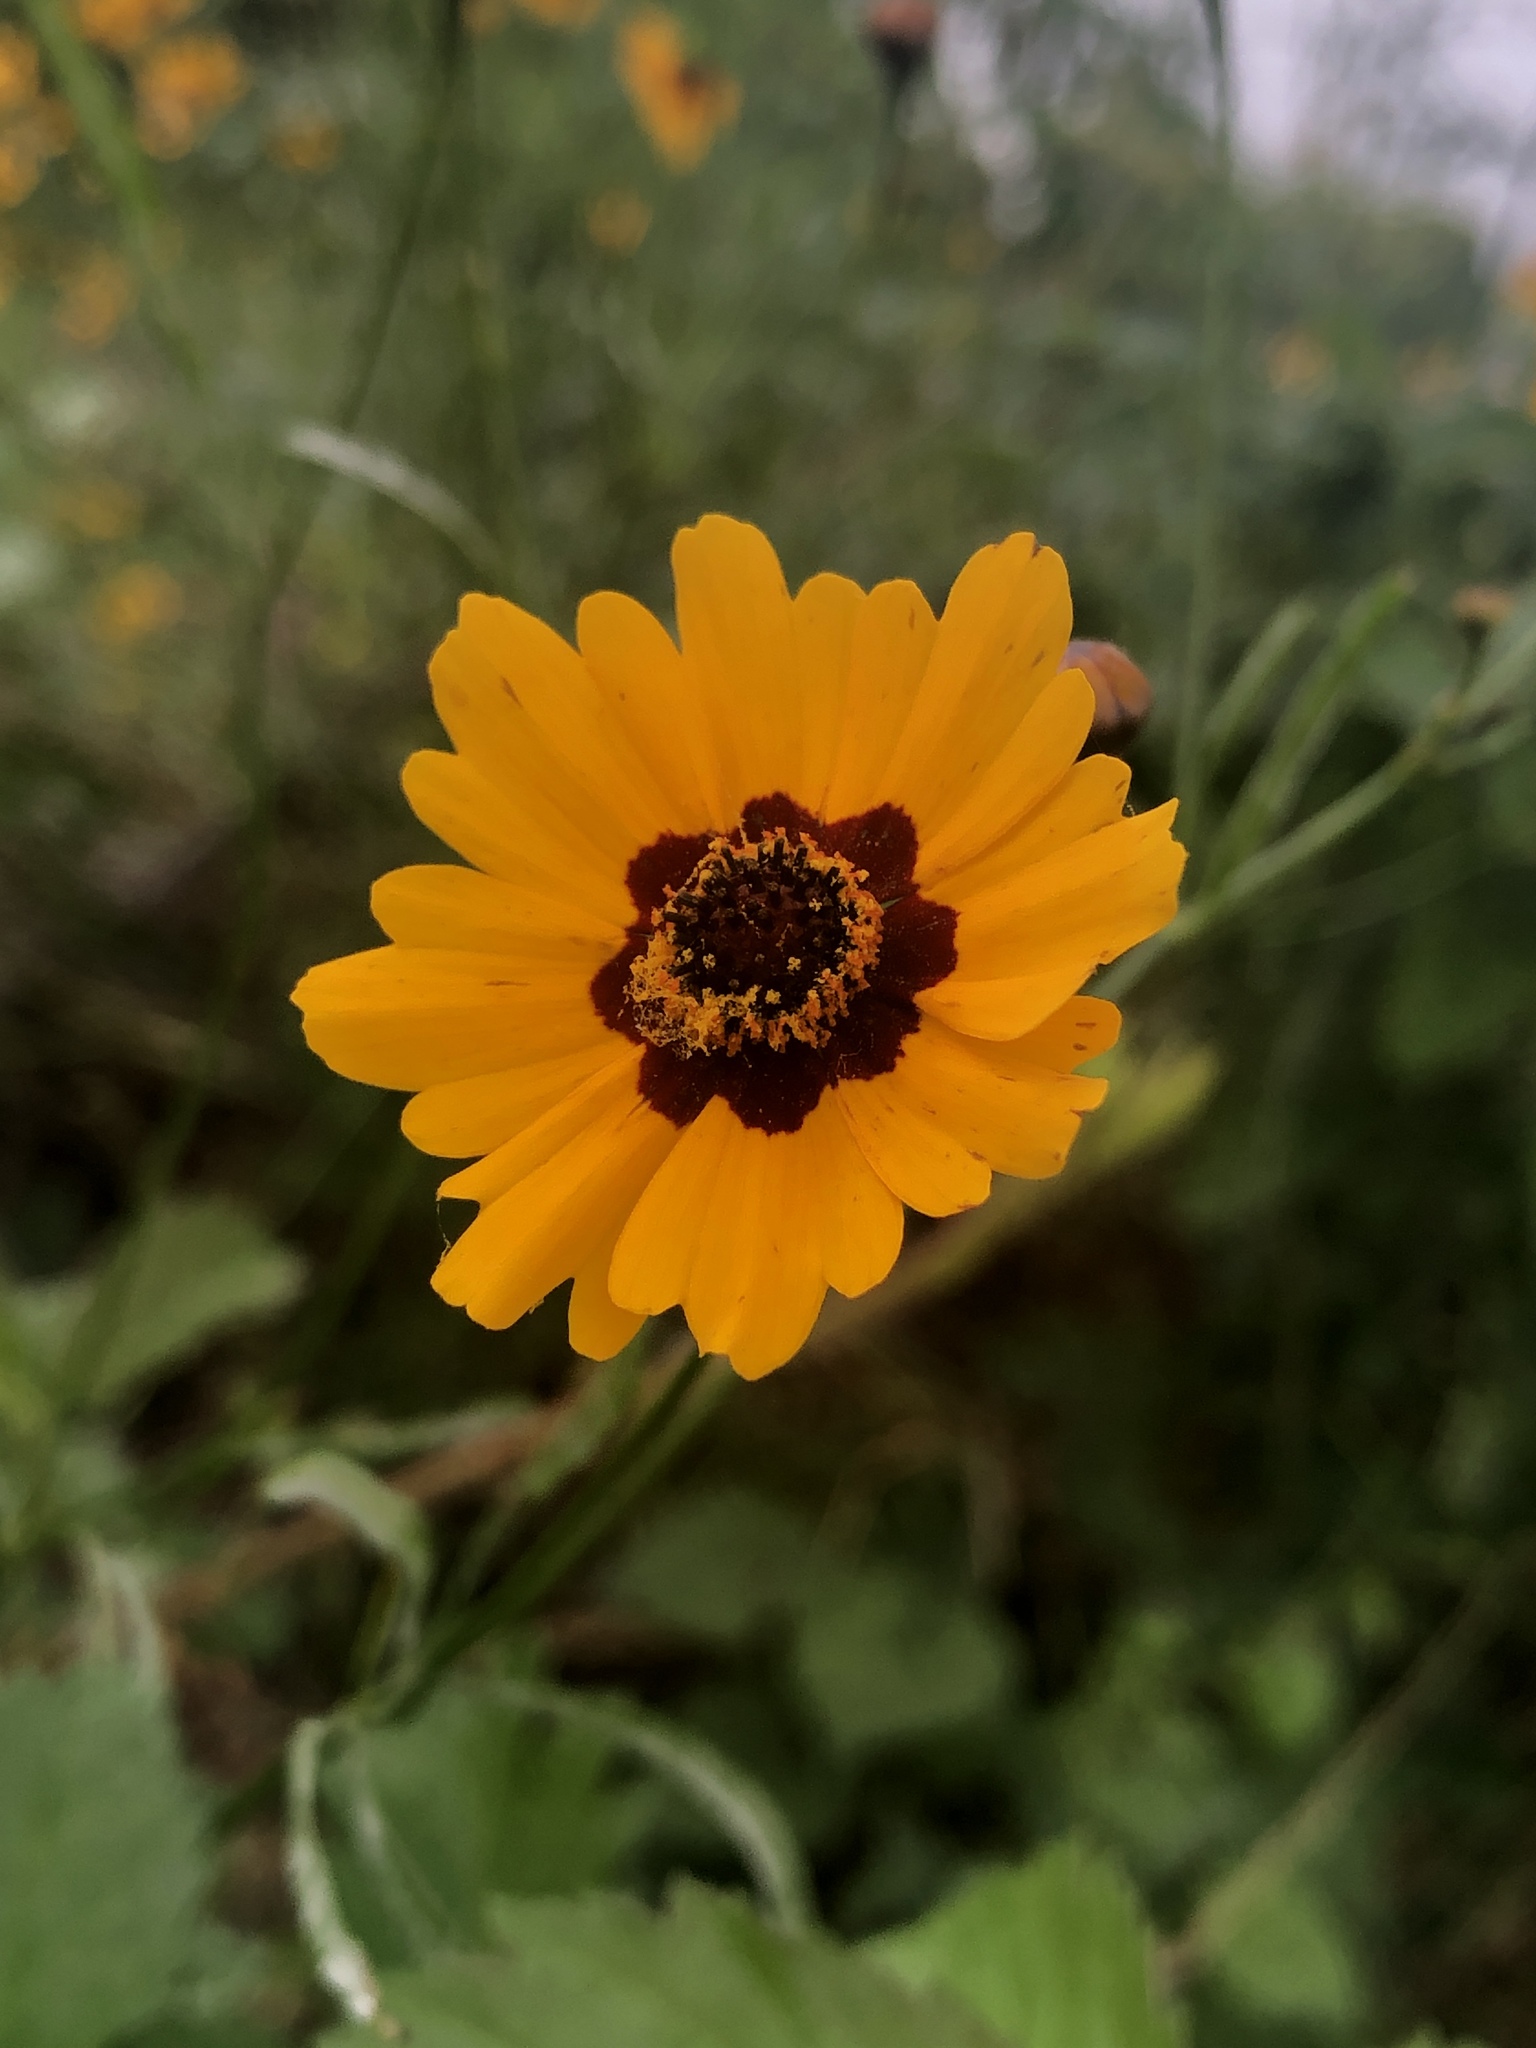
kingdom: Plantae
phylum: Tracheophyta
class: Magnoliopsida
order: Asterales
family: Asteraceae
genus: Coreopsis
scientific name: Coreopsis tinctoria
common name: Garden tickseed
